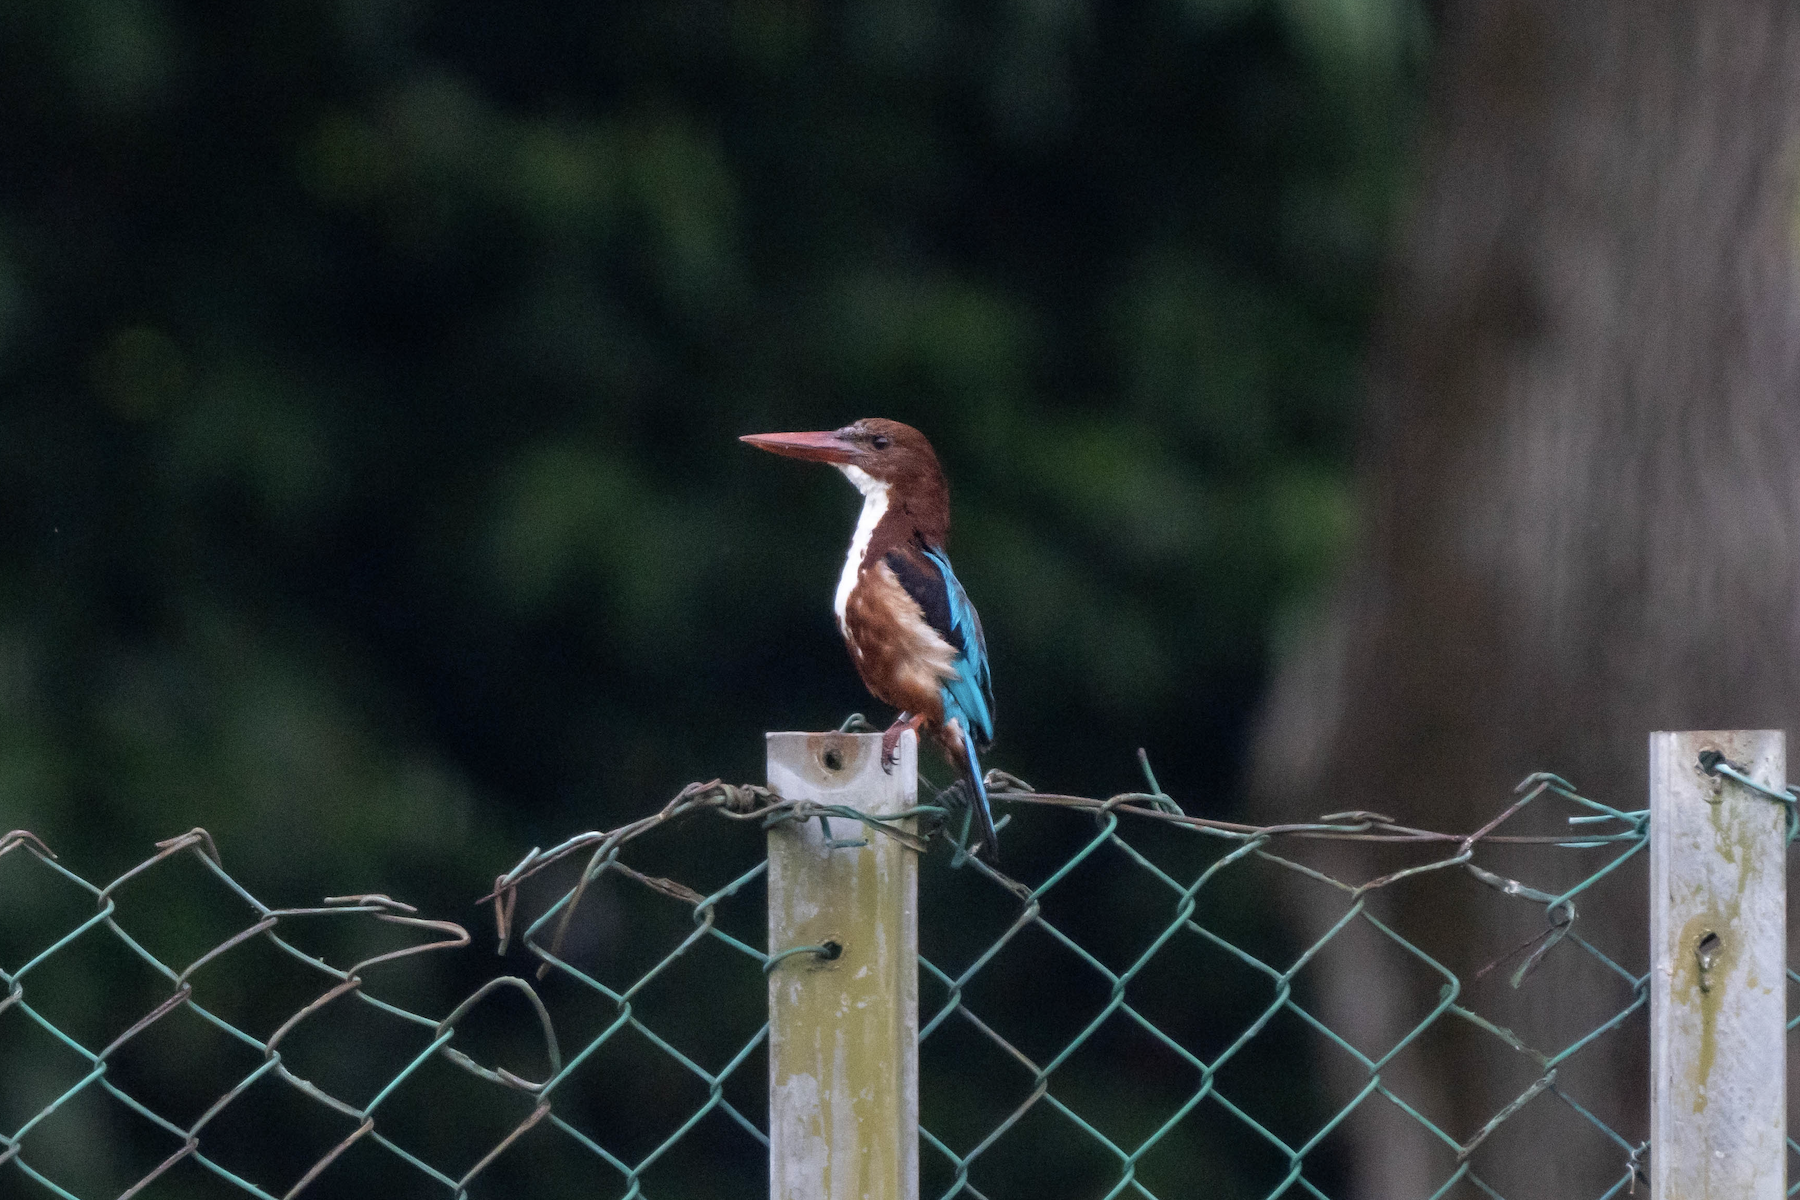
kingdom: Animalia
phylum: Chordata
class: Aves
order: Coraciiformes
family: Alcedinidae
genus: Halcyon
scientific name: Halcyon smyrnensis
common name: White-throated kingfisher
